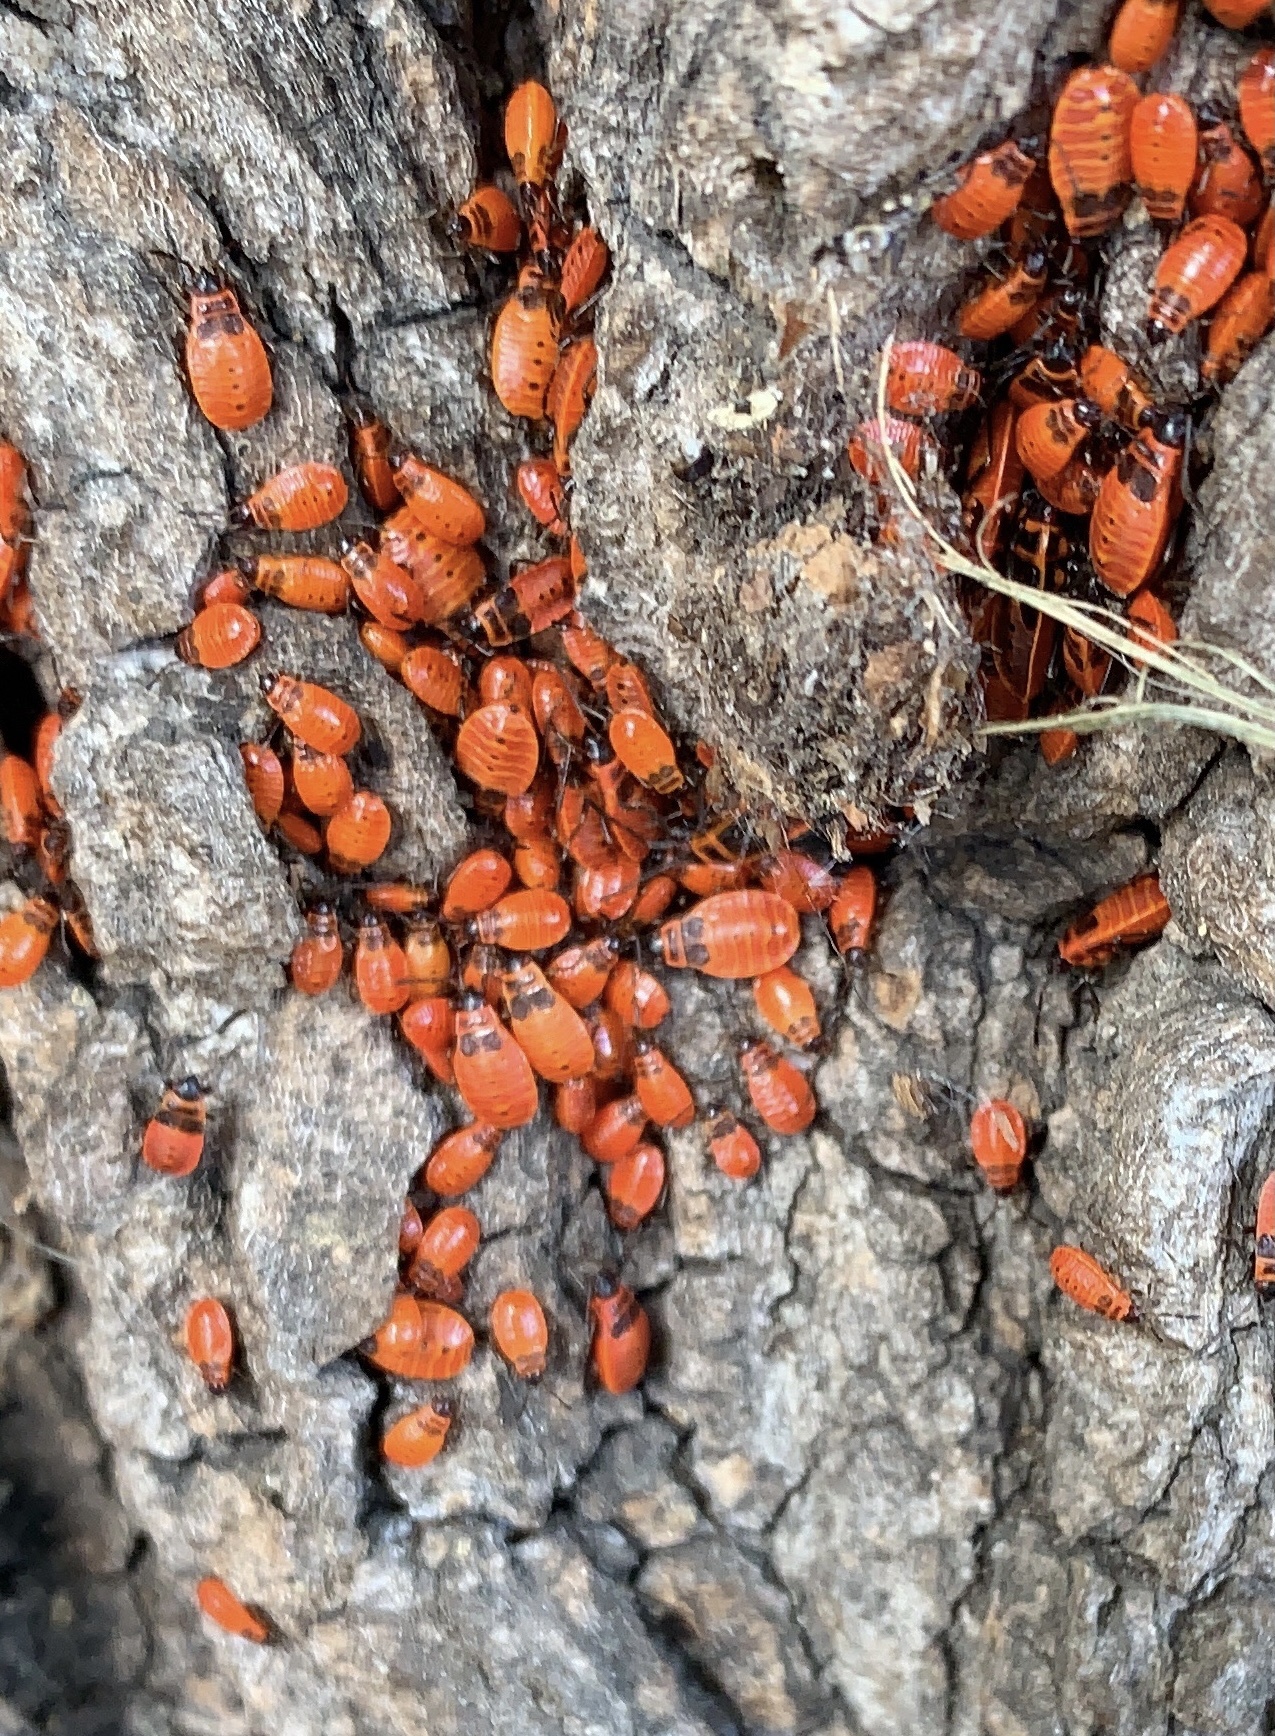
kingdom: Animalia
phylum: Arthropoda
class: Insecta
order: Hemiptera
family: Pyrrhocoridae
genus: Pyrrhocoris
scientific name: Pyrrhocoris apterus
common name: Firebug
